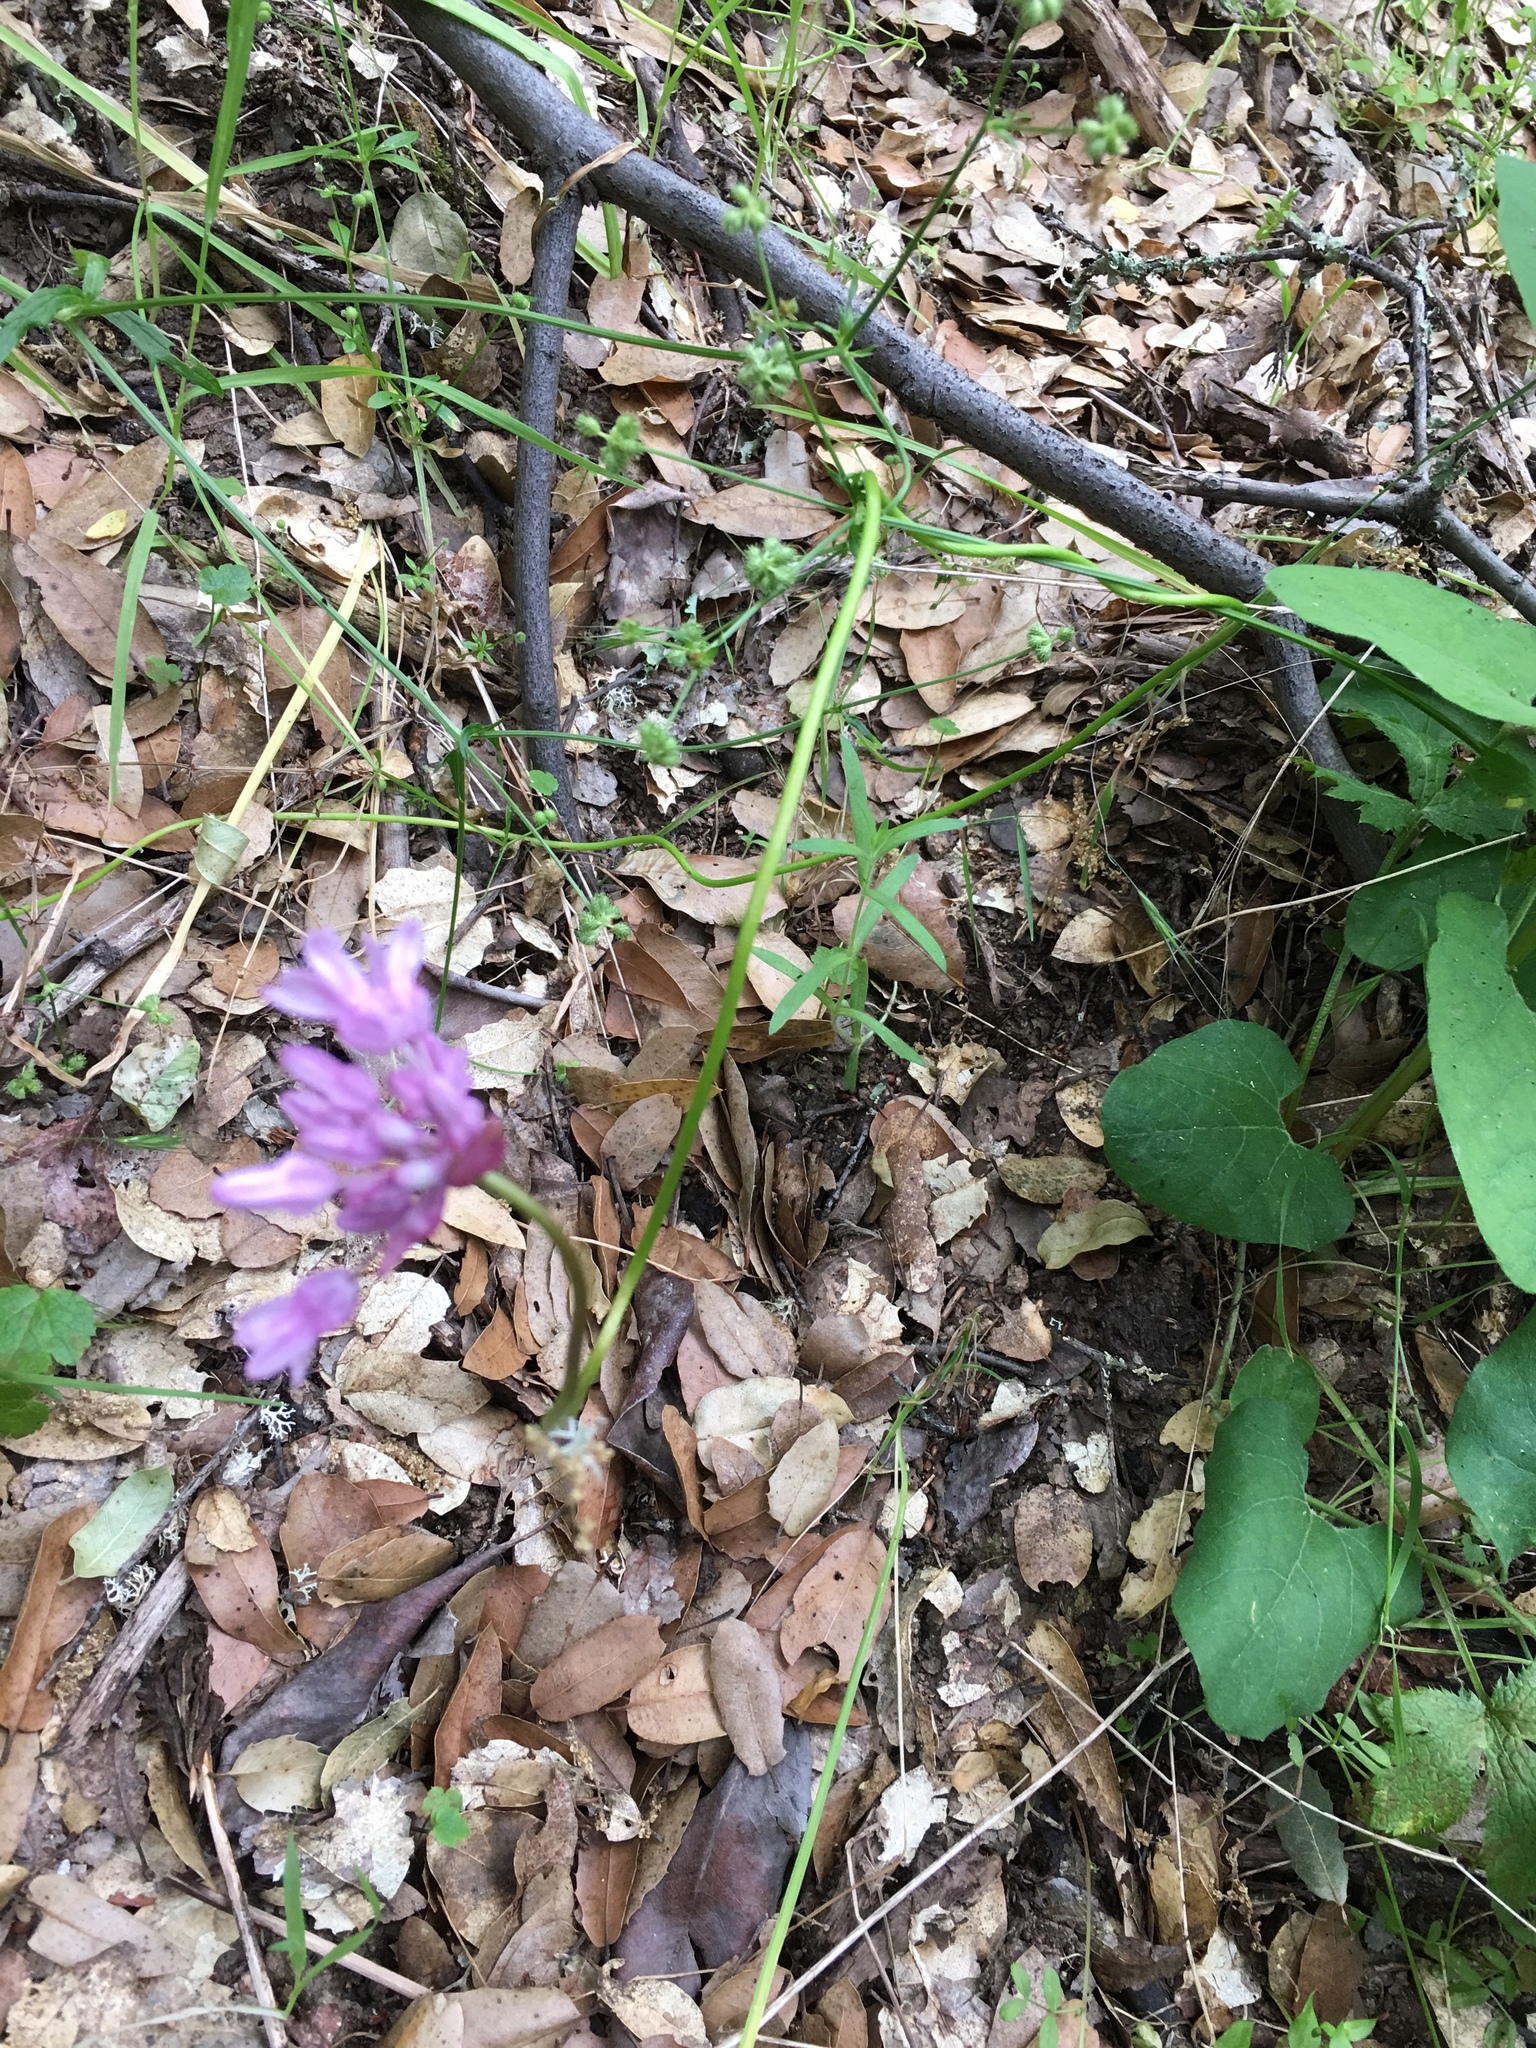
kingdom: Plantae
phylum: Tracheophyta
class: Liliopsida
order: Asparagales
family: Asparagaceae
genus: Dichelostemma
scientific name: Dichelostemma volubile
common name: Trining brodiaea
